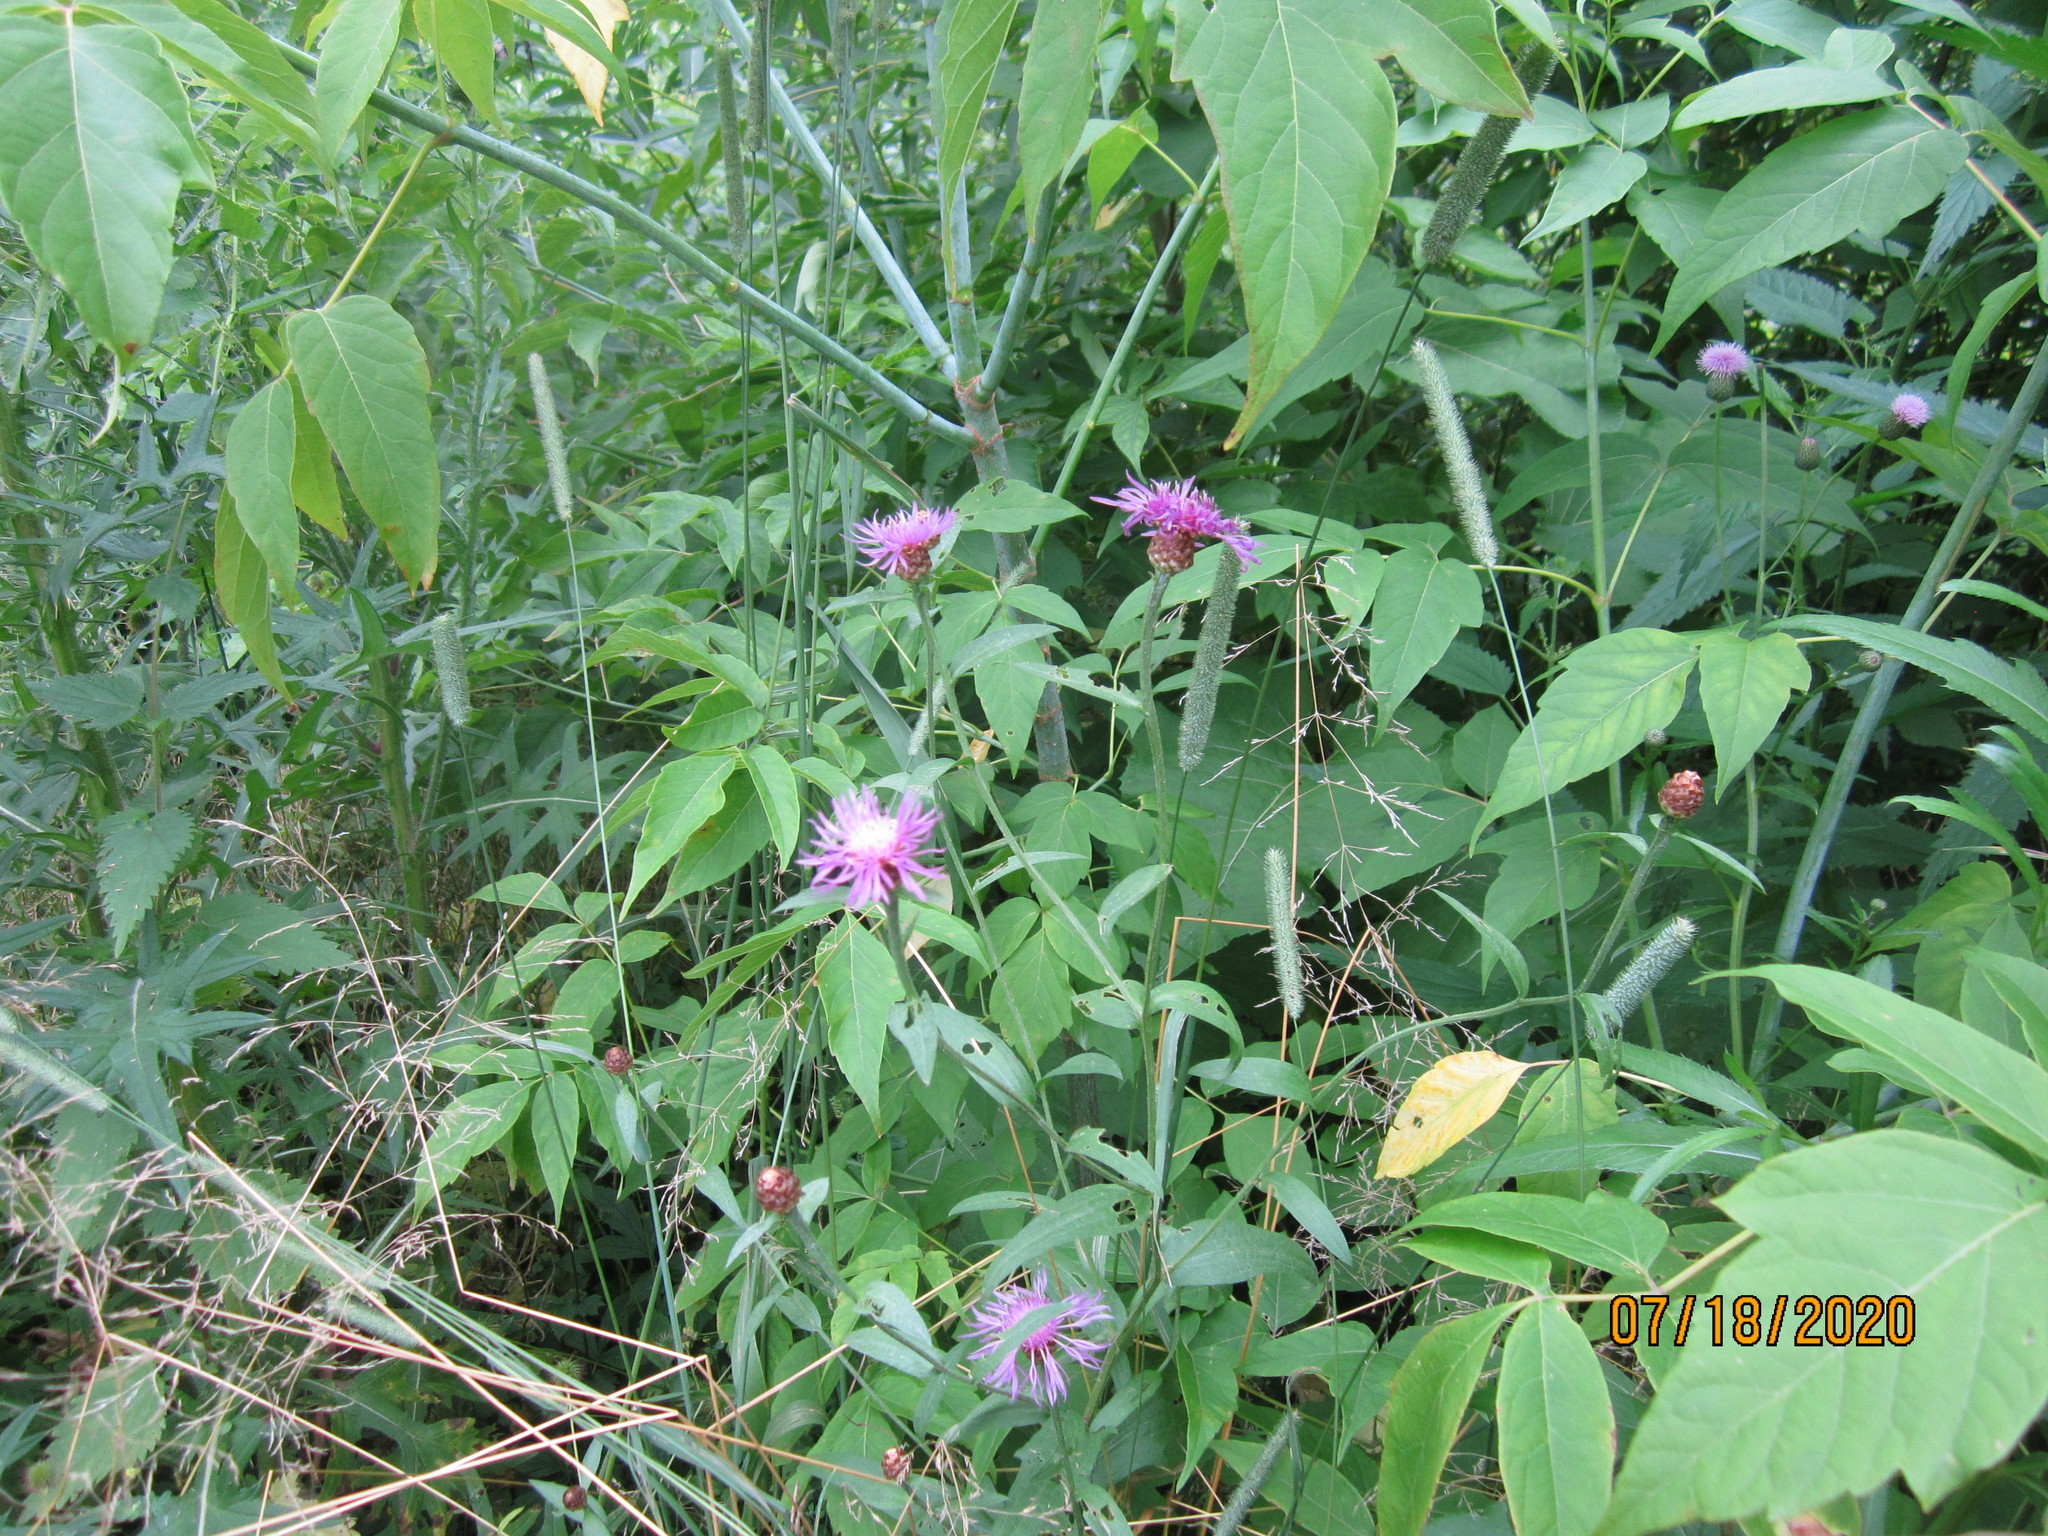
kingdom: Plantae
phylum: Tracheophyta
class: Magnoliopsida
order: Asterales
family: Asteraceae
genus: Centaurea
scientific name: Centaurea jacea
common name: Brown knapweed
